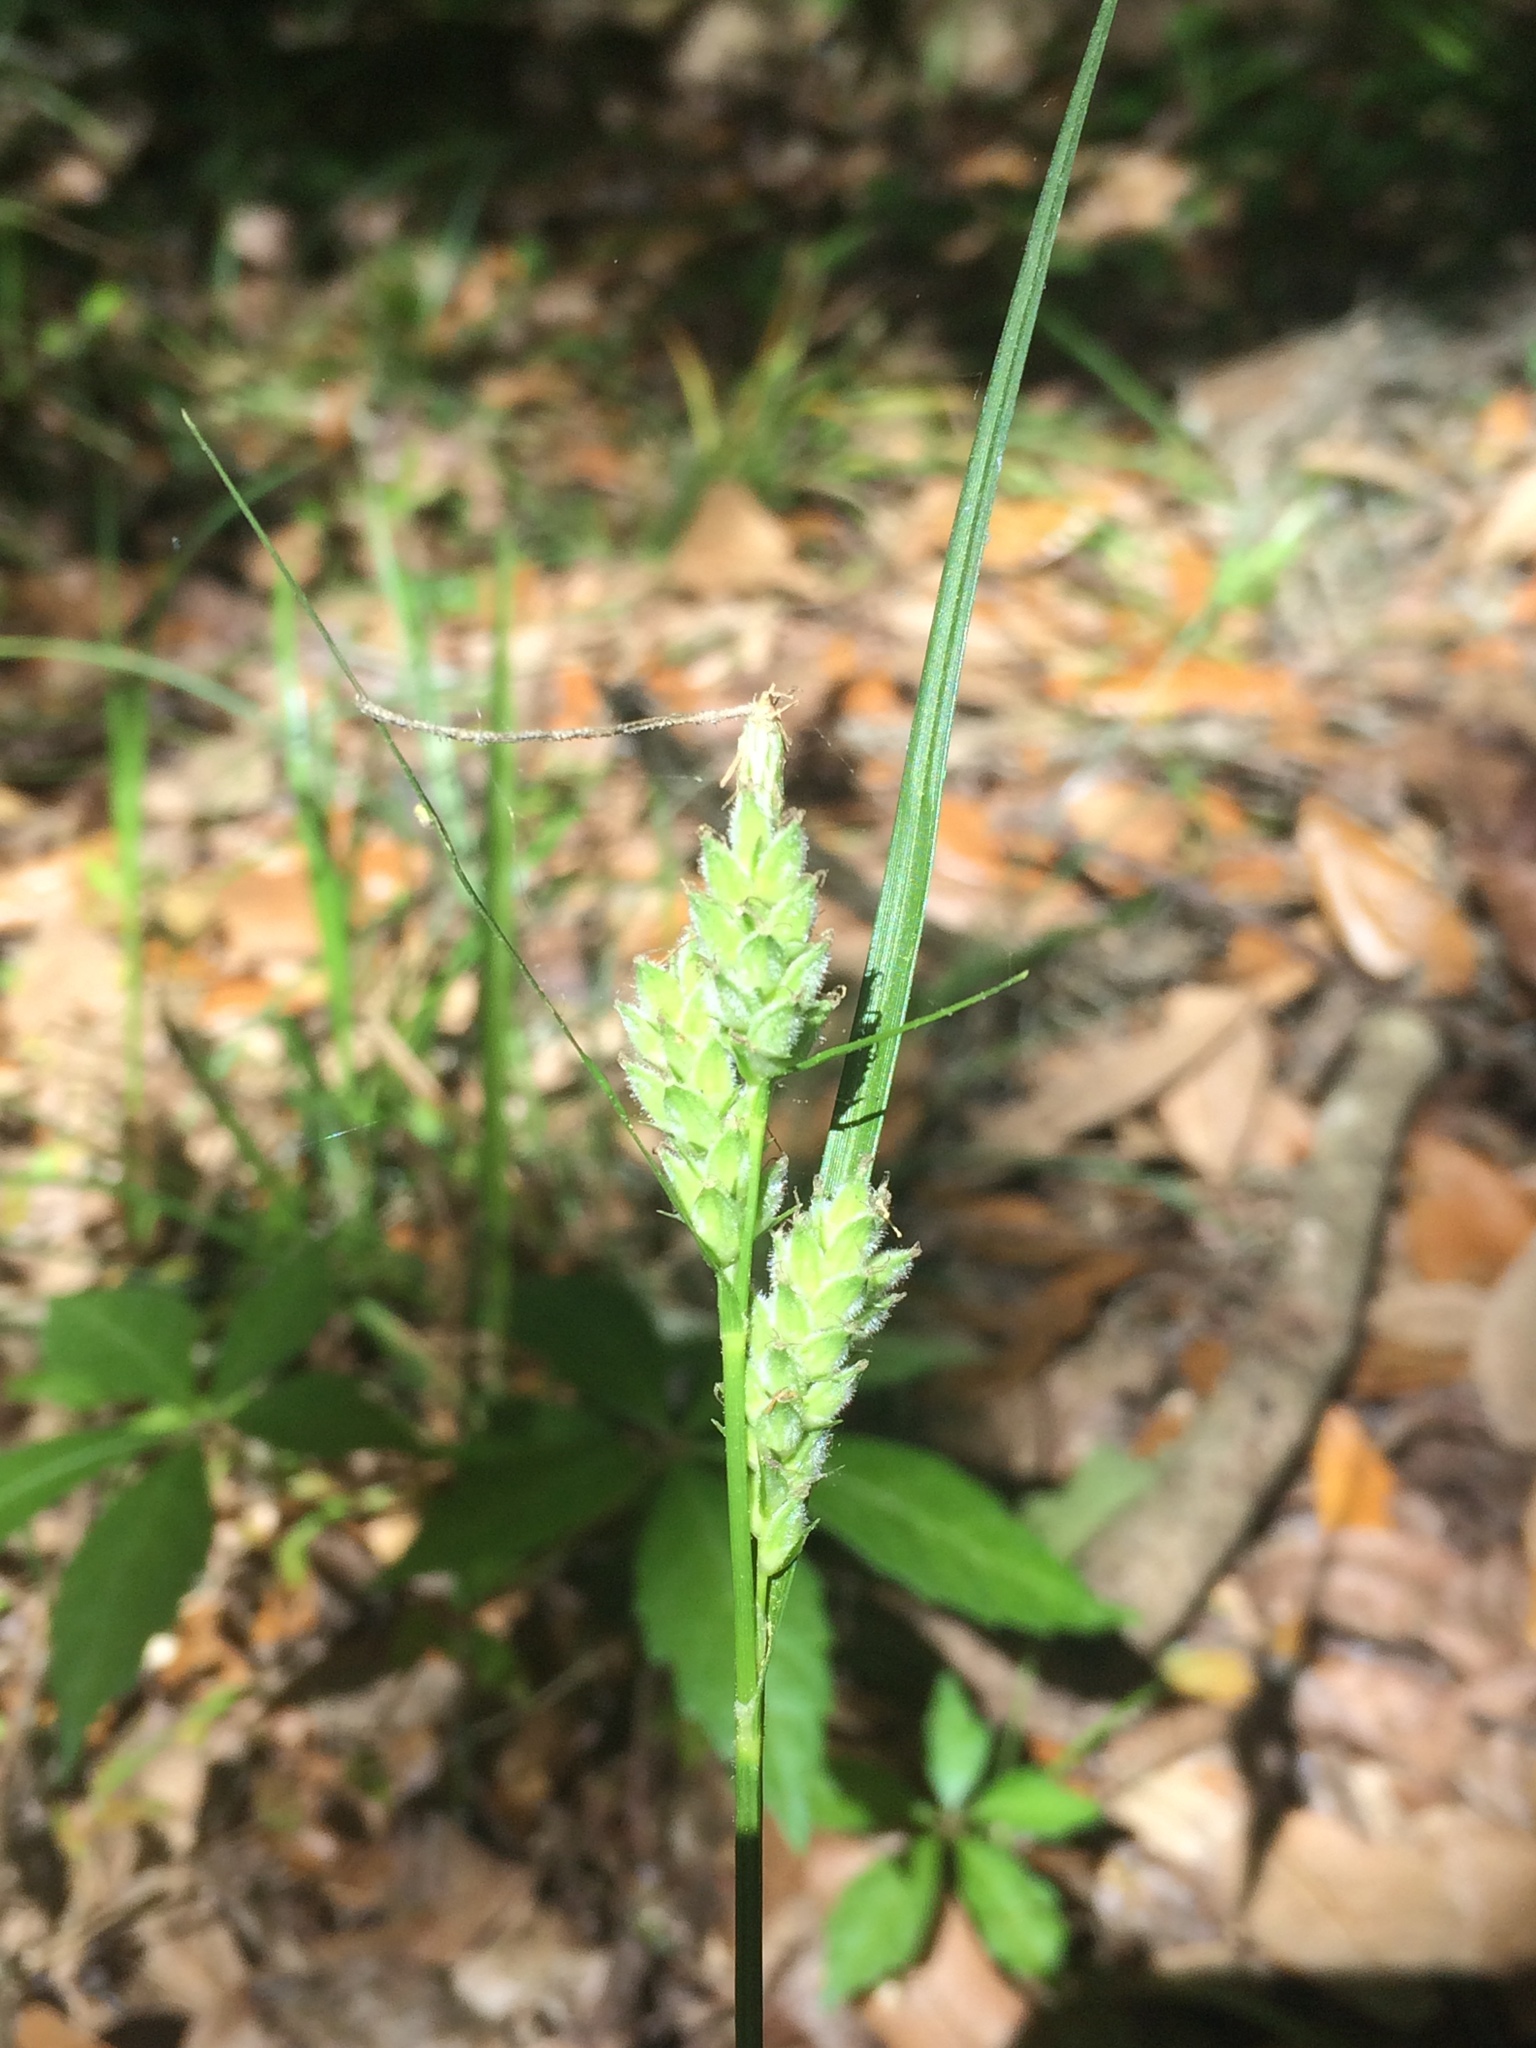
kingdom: Plantae
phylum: Tracheophyta
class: Liliopsida
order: Poales
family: Cyperaceae
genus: Carex
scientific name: Carex dasycarpa
